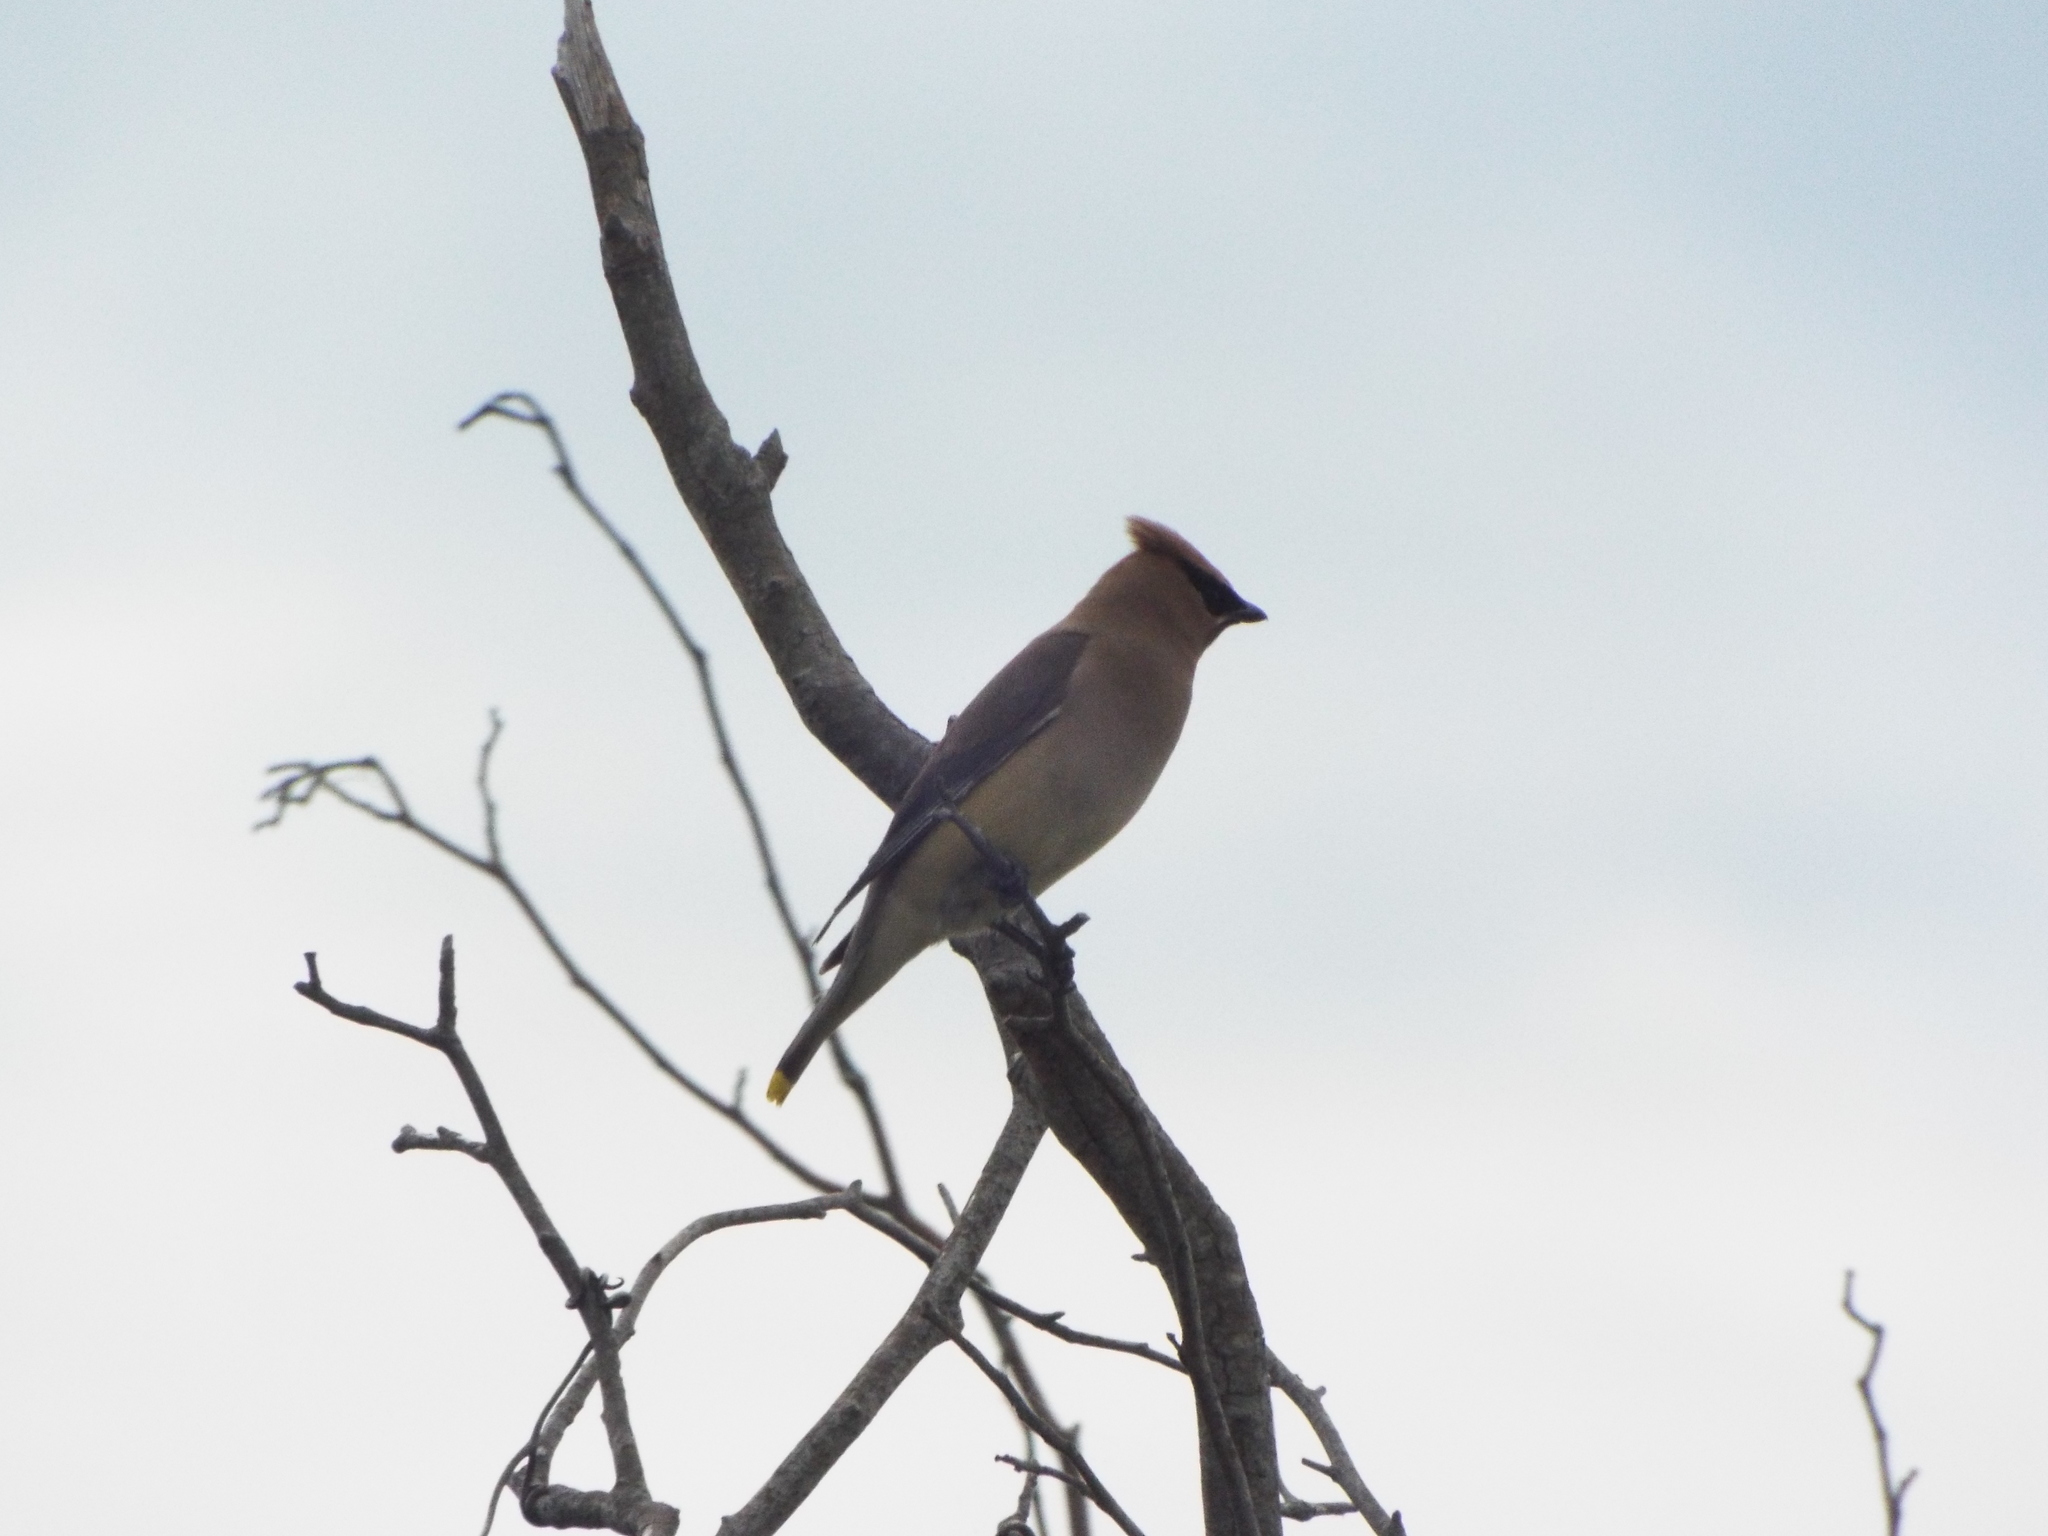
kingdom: Animalia
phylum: Chordata
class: Aves
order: Passeriformes
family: Bombycillidae
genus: Bombycilla
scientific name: Bombycilla cedrorum
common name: Cedar waxwing
